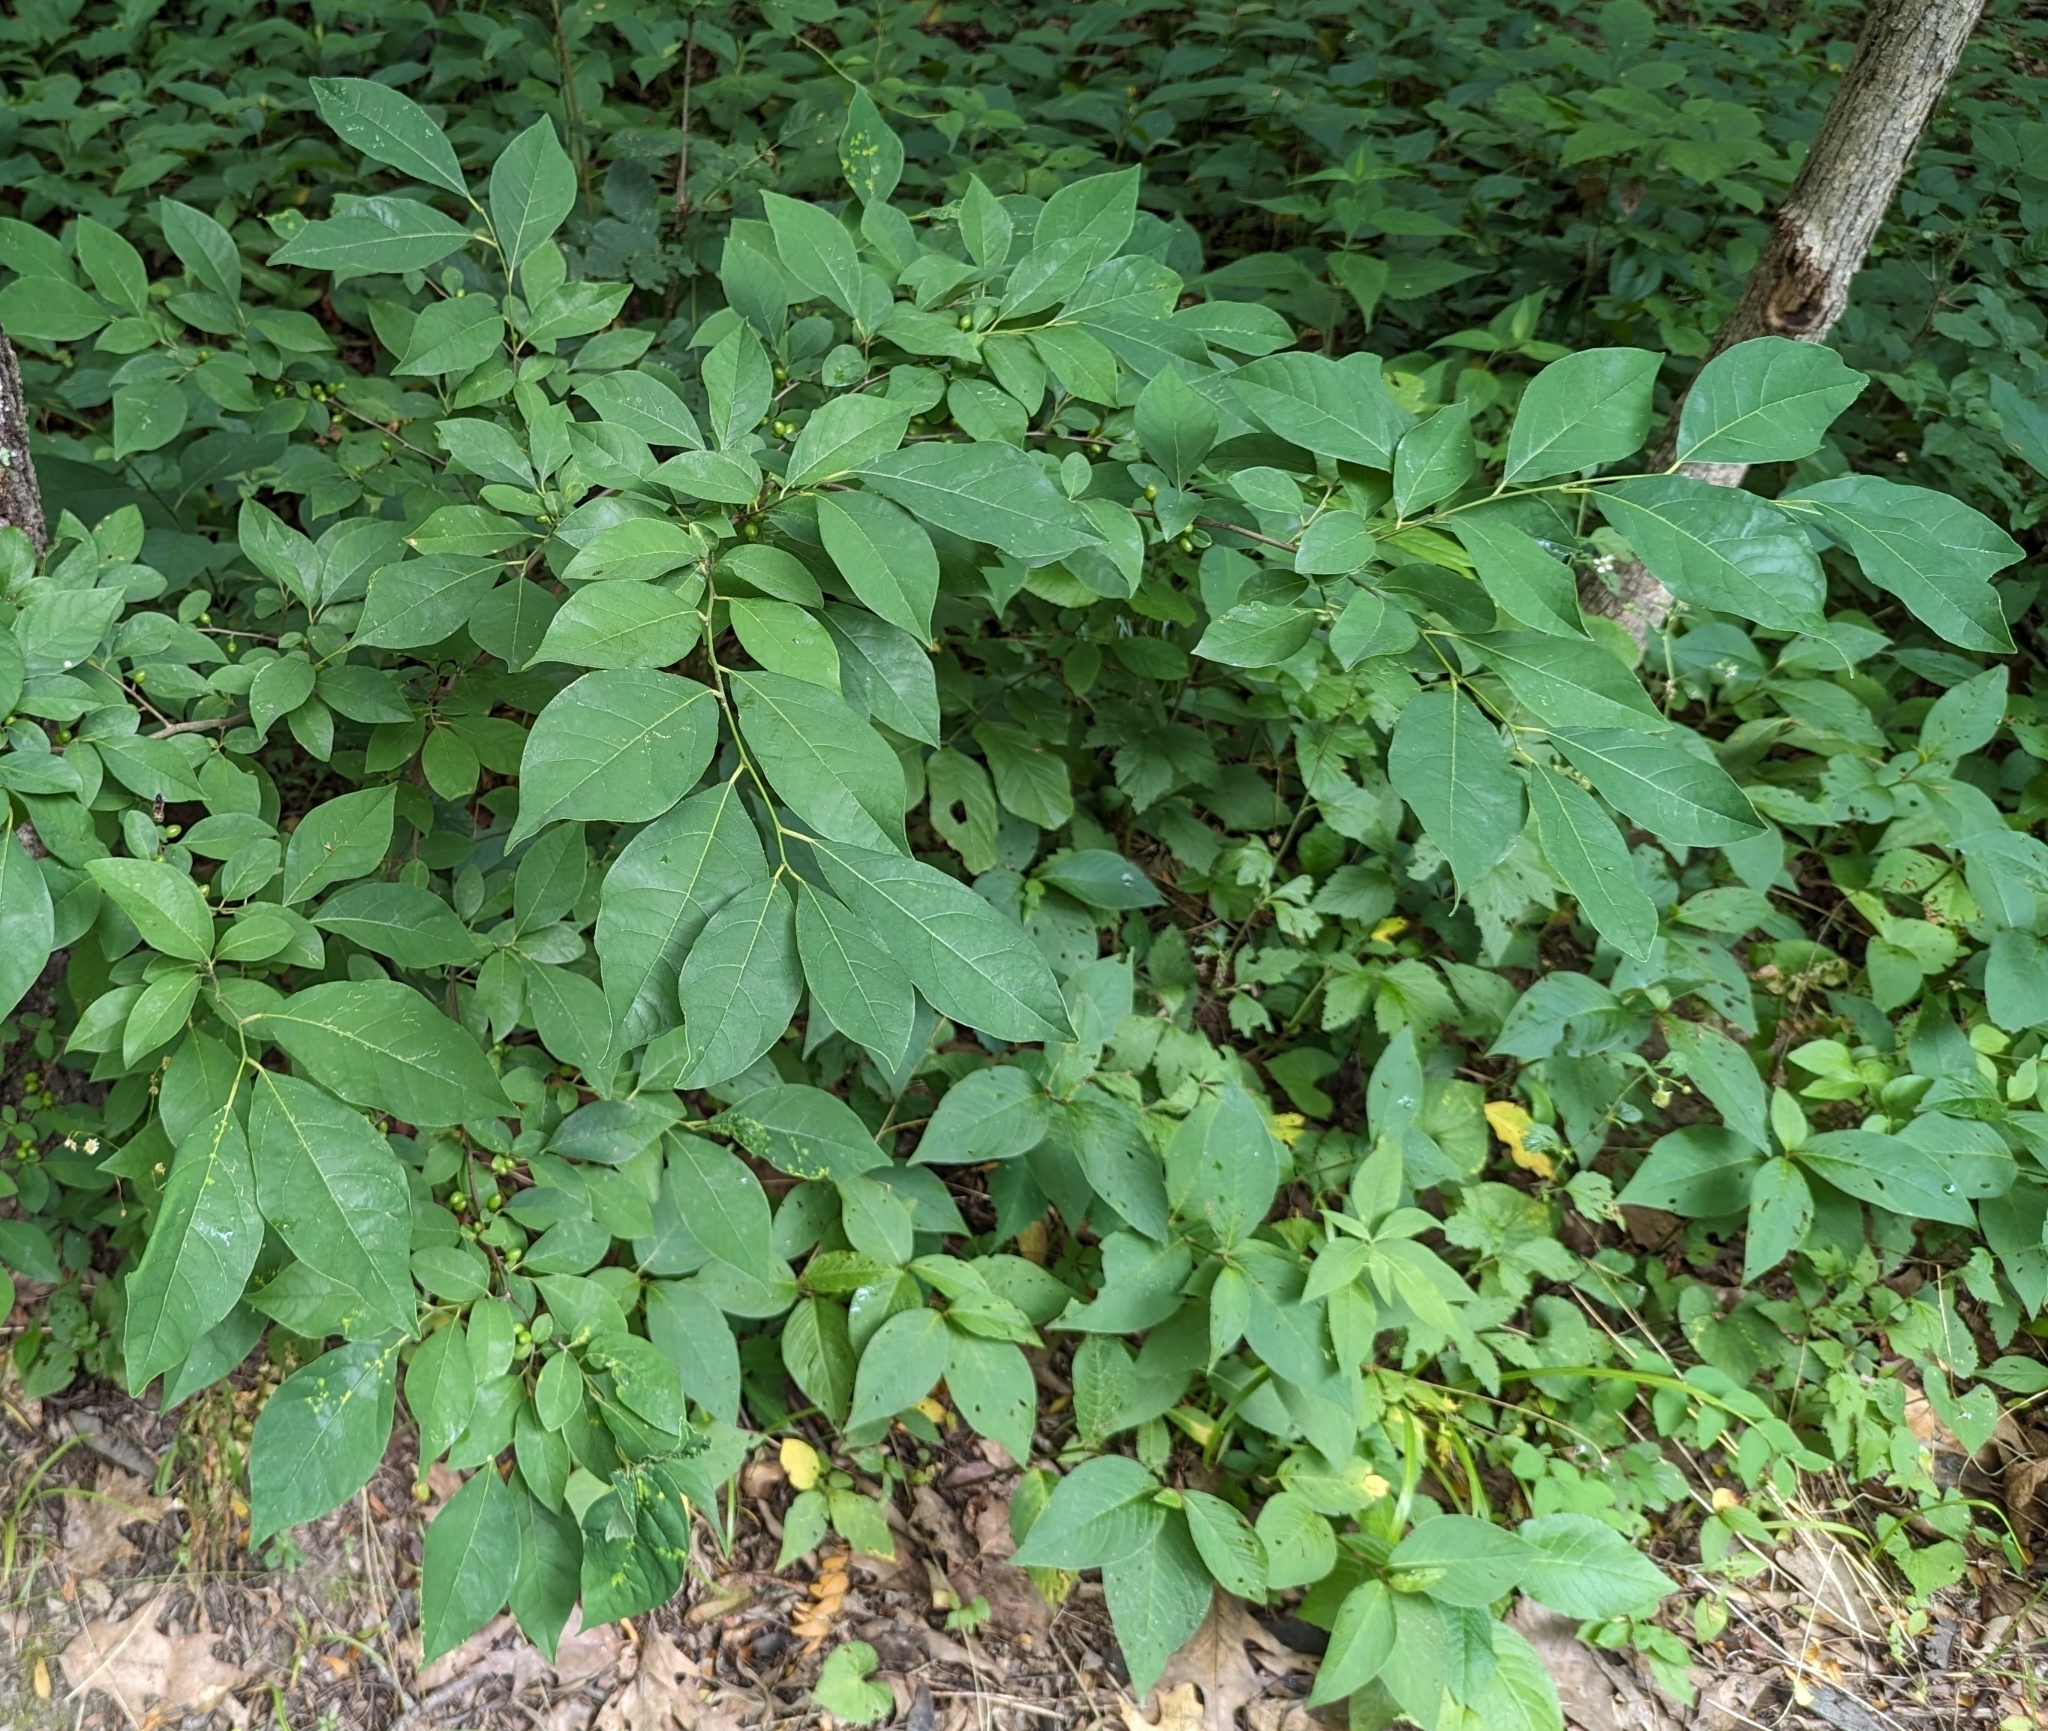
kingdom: Plantae
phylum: Tracheophyta
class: Magnoliopsida
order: Laurales
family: Lauraceae
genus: Lindera
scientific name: Lindera benzoin
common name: Spicebush
